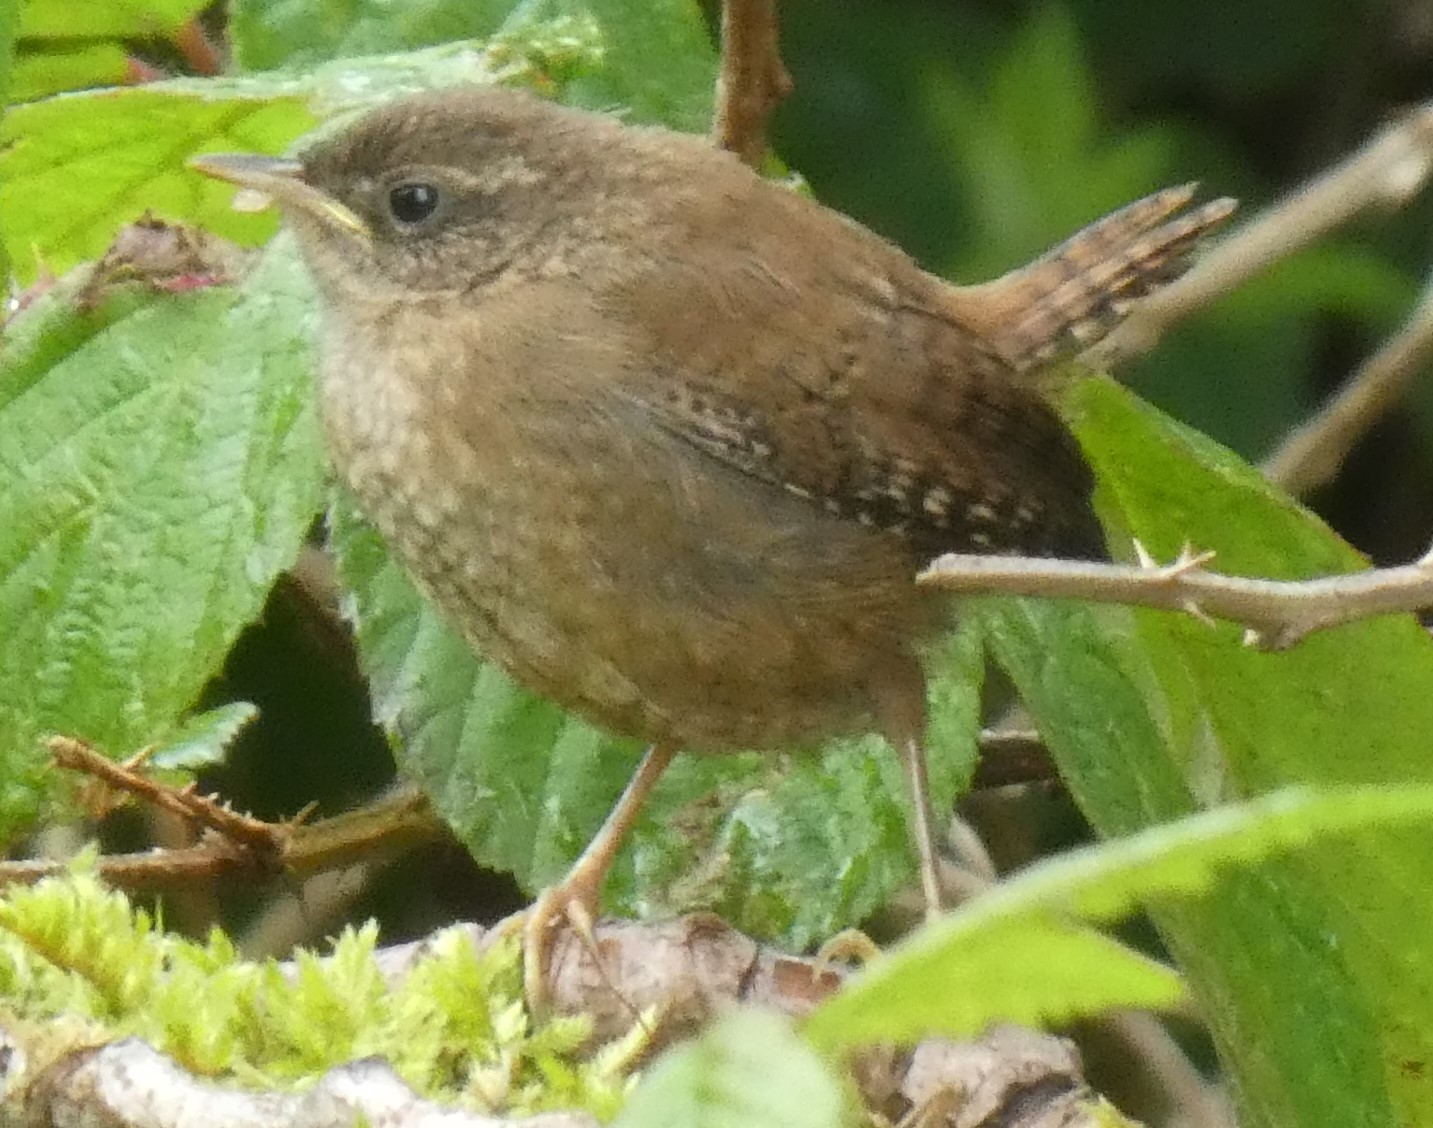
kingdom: Animalia
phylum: Chordata
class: Aves
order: Passeriformes
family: Troglodytidae
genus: Troglodytes
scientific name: Troglodytes troglodytes
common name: Eurasian wren
